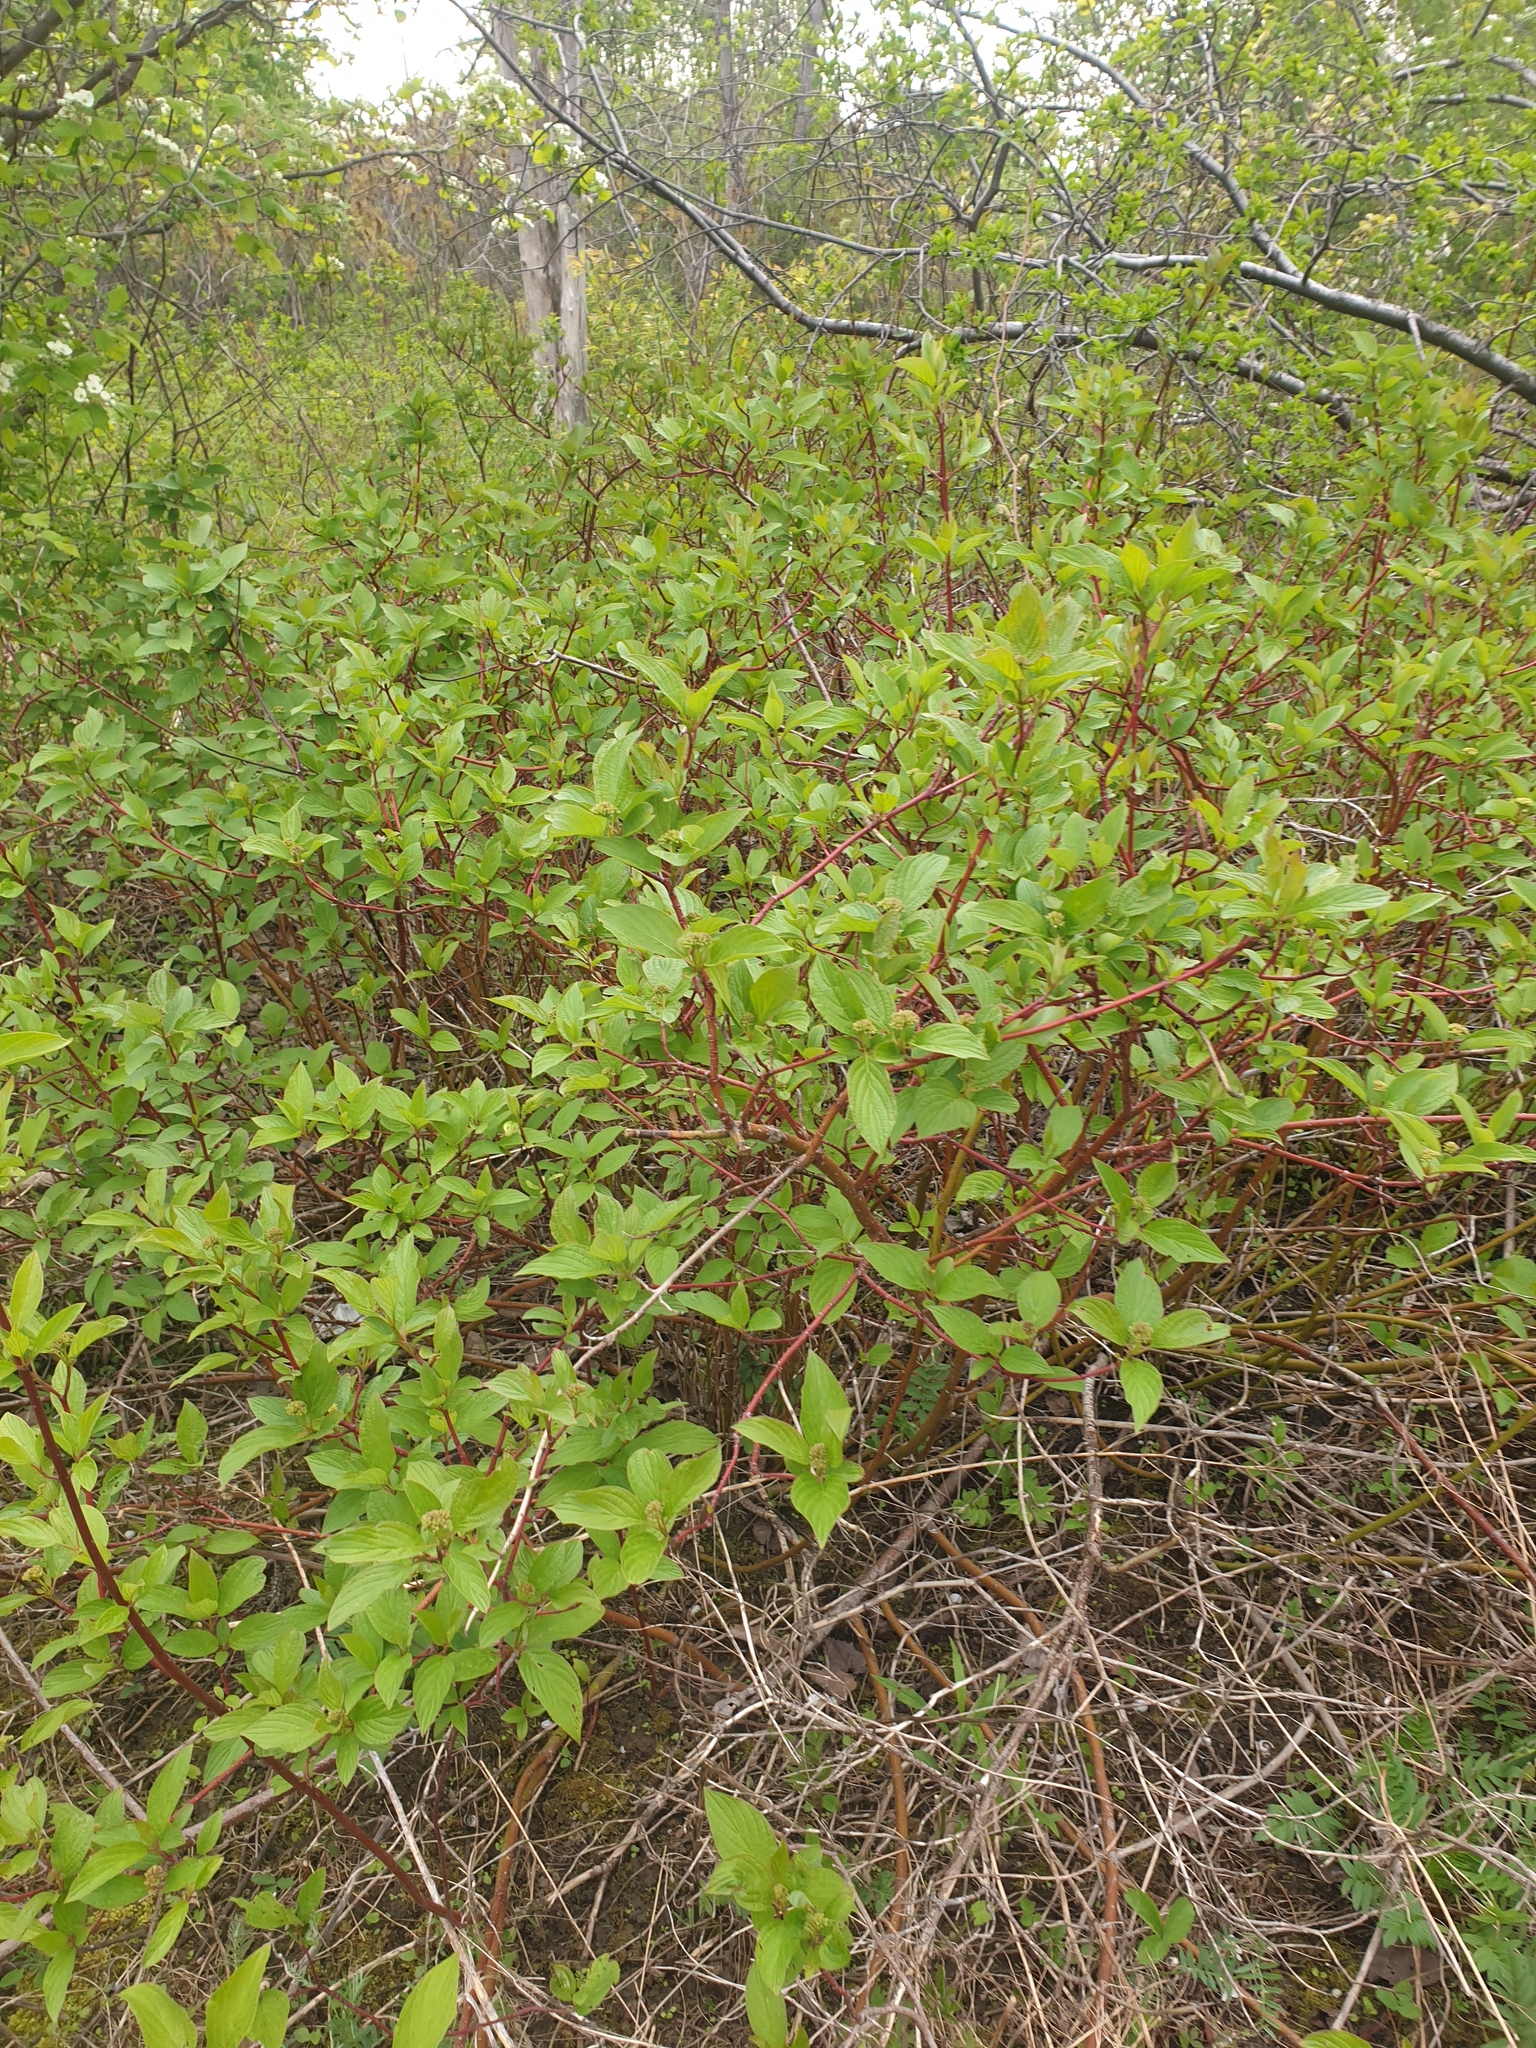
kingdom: Plantae
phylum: Tracheophyta
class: Magnoliopsida
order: Cornales
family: Cornaceae
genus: Cornus
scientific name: Cornus sericea
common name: Red-osier dogwood
